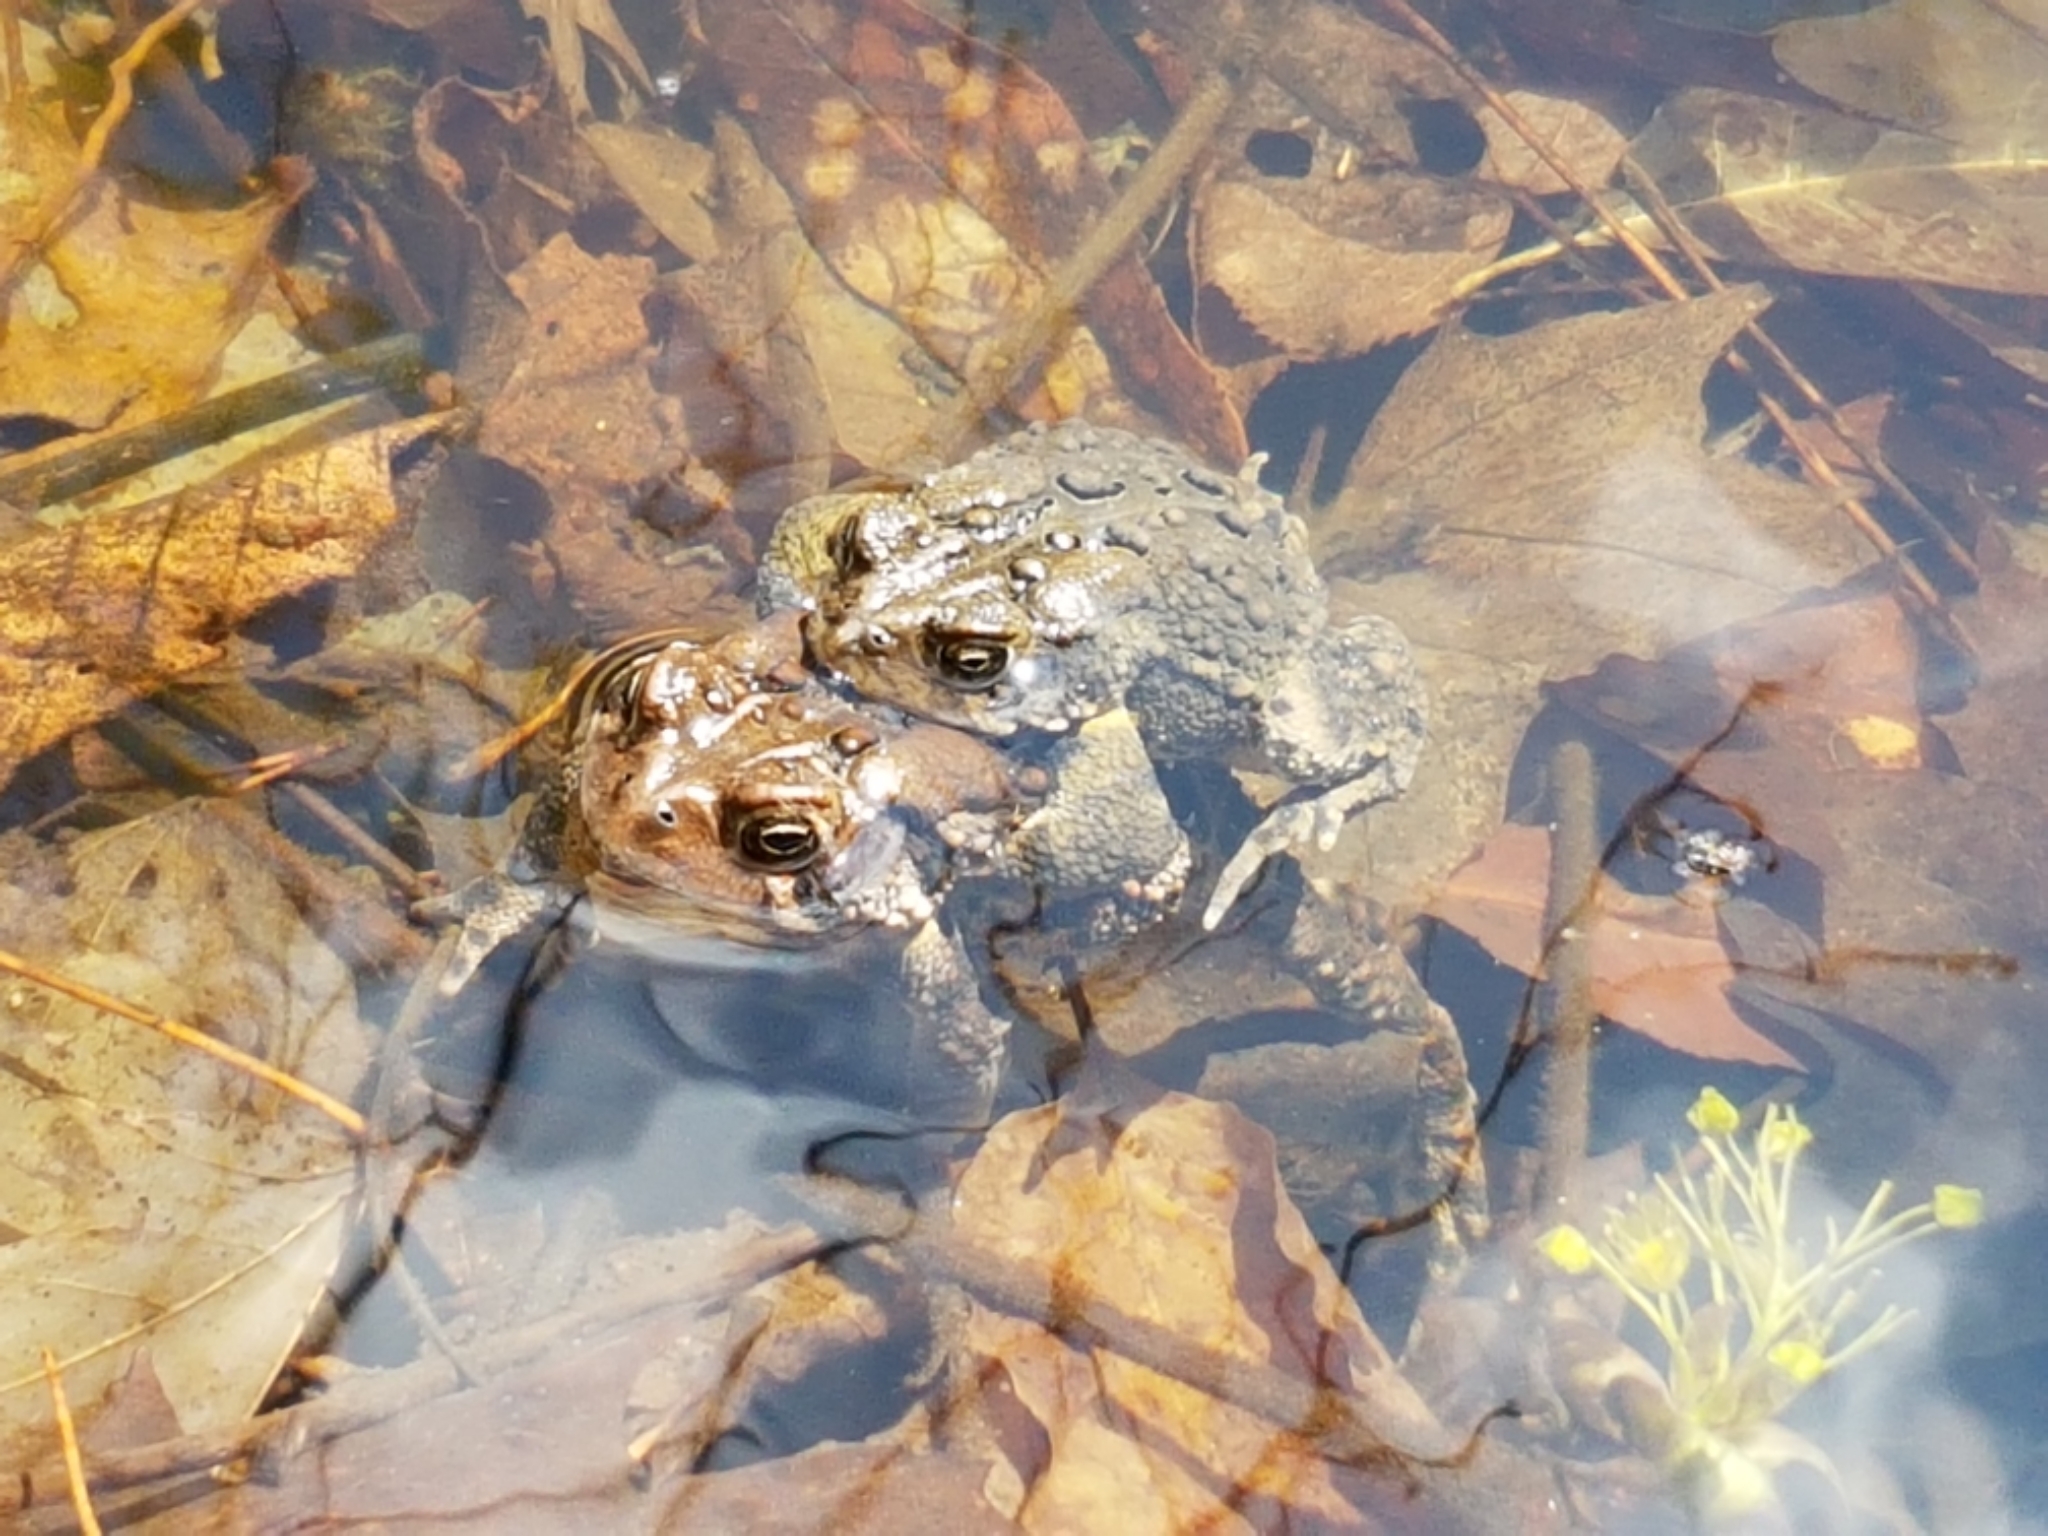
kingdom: Animalia
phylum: Chordata
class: Amphibia
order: Anura
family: Bufonidae
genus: Anaxyrus
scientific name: Anaxyrus americanus
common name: American toad
